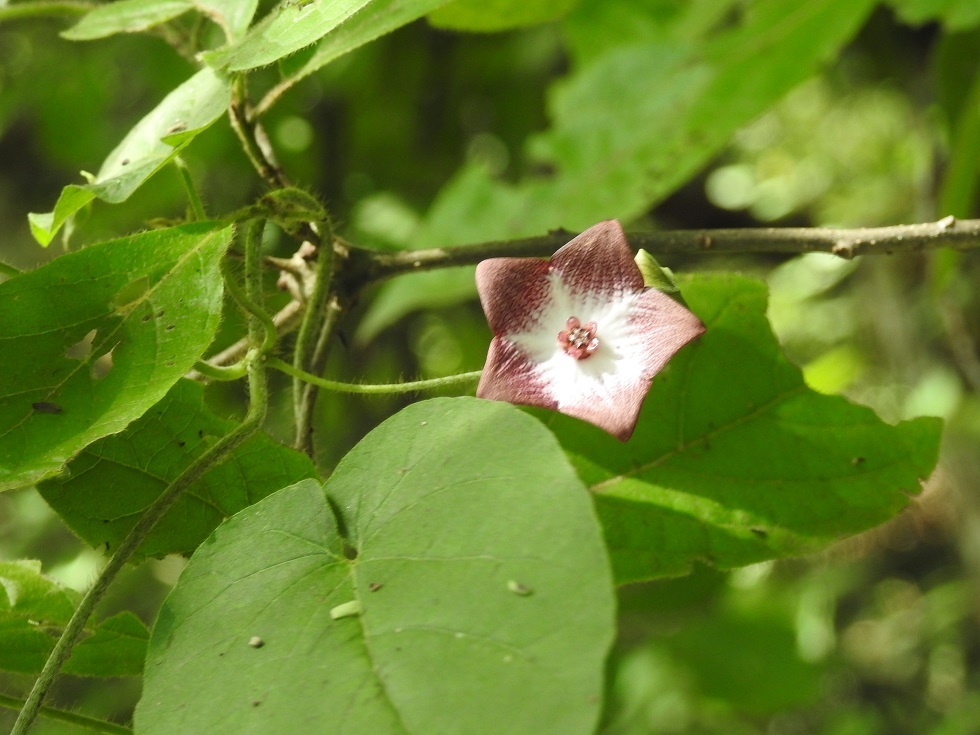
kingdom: Plantae
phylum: Tracheophyta
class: Magnoliopsida
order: Gentianales
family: Apocynaceae
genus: Polystemma
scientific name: Polystemma guatemalense
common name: Arborescente rattan
